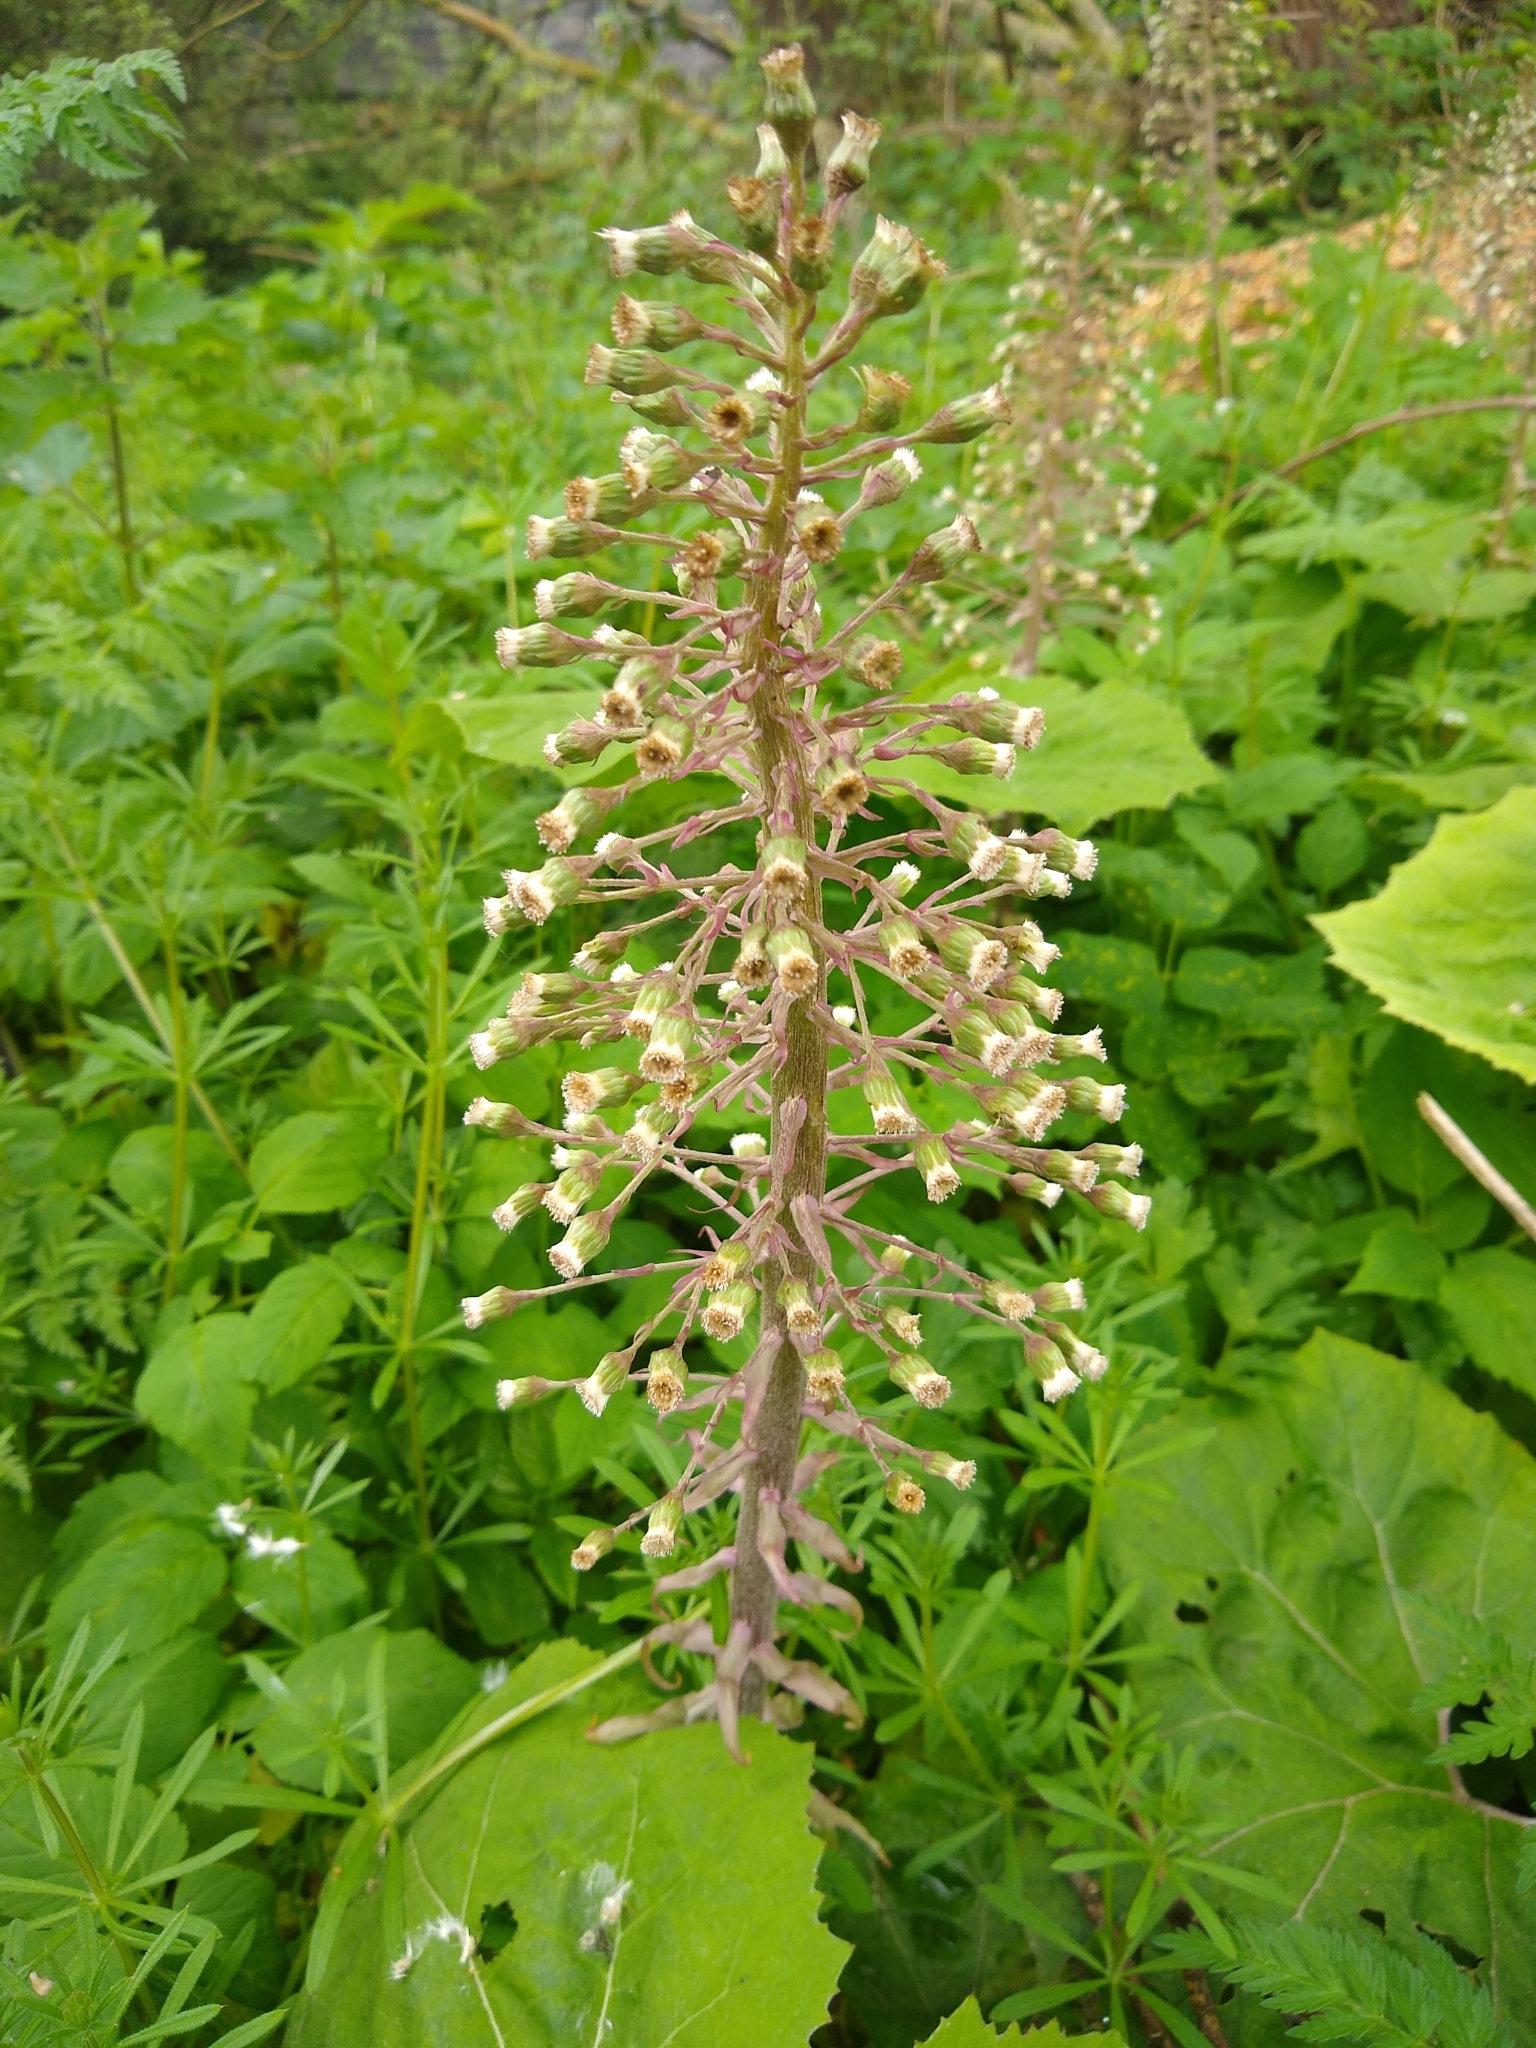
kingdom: Plantae
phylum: Tracheophyta
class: Magnoliopsida
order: Asterales
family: Asteraceae
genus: Petasites
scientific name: Petasites hybridus
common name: Butterbur
